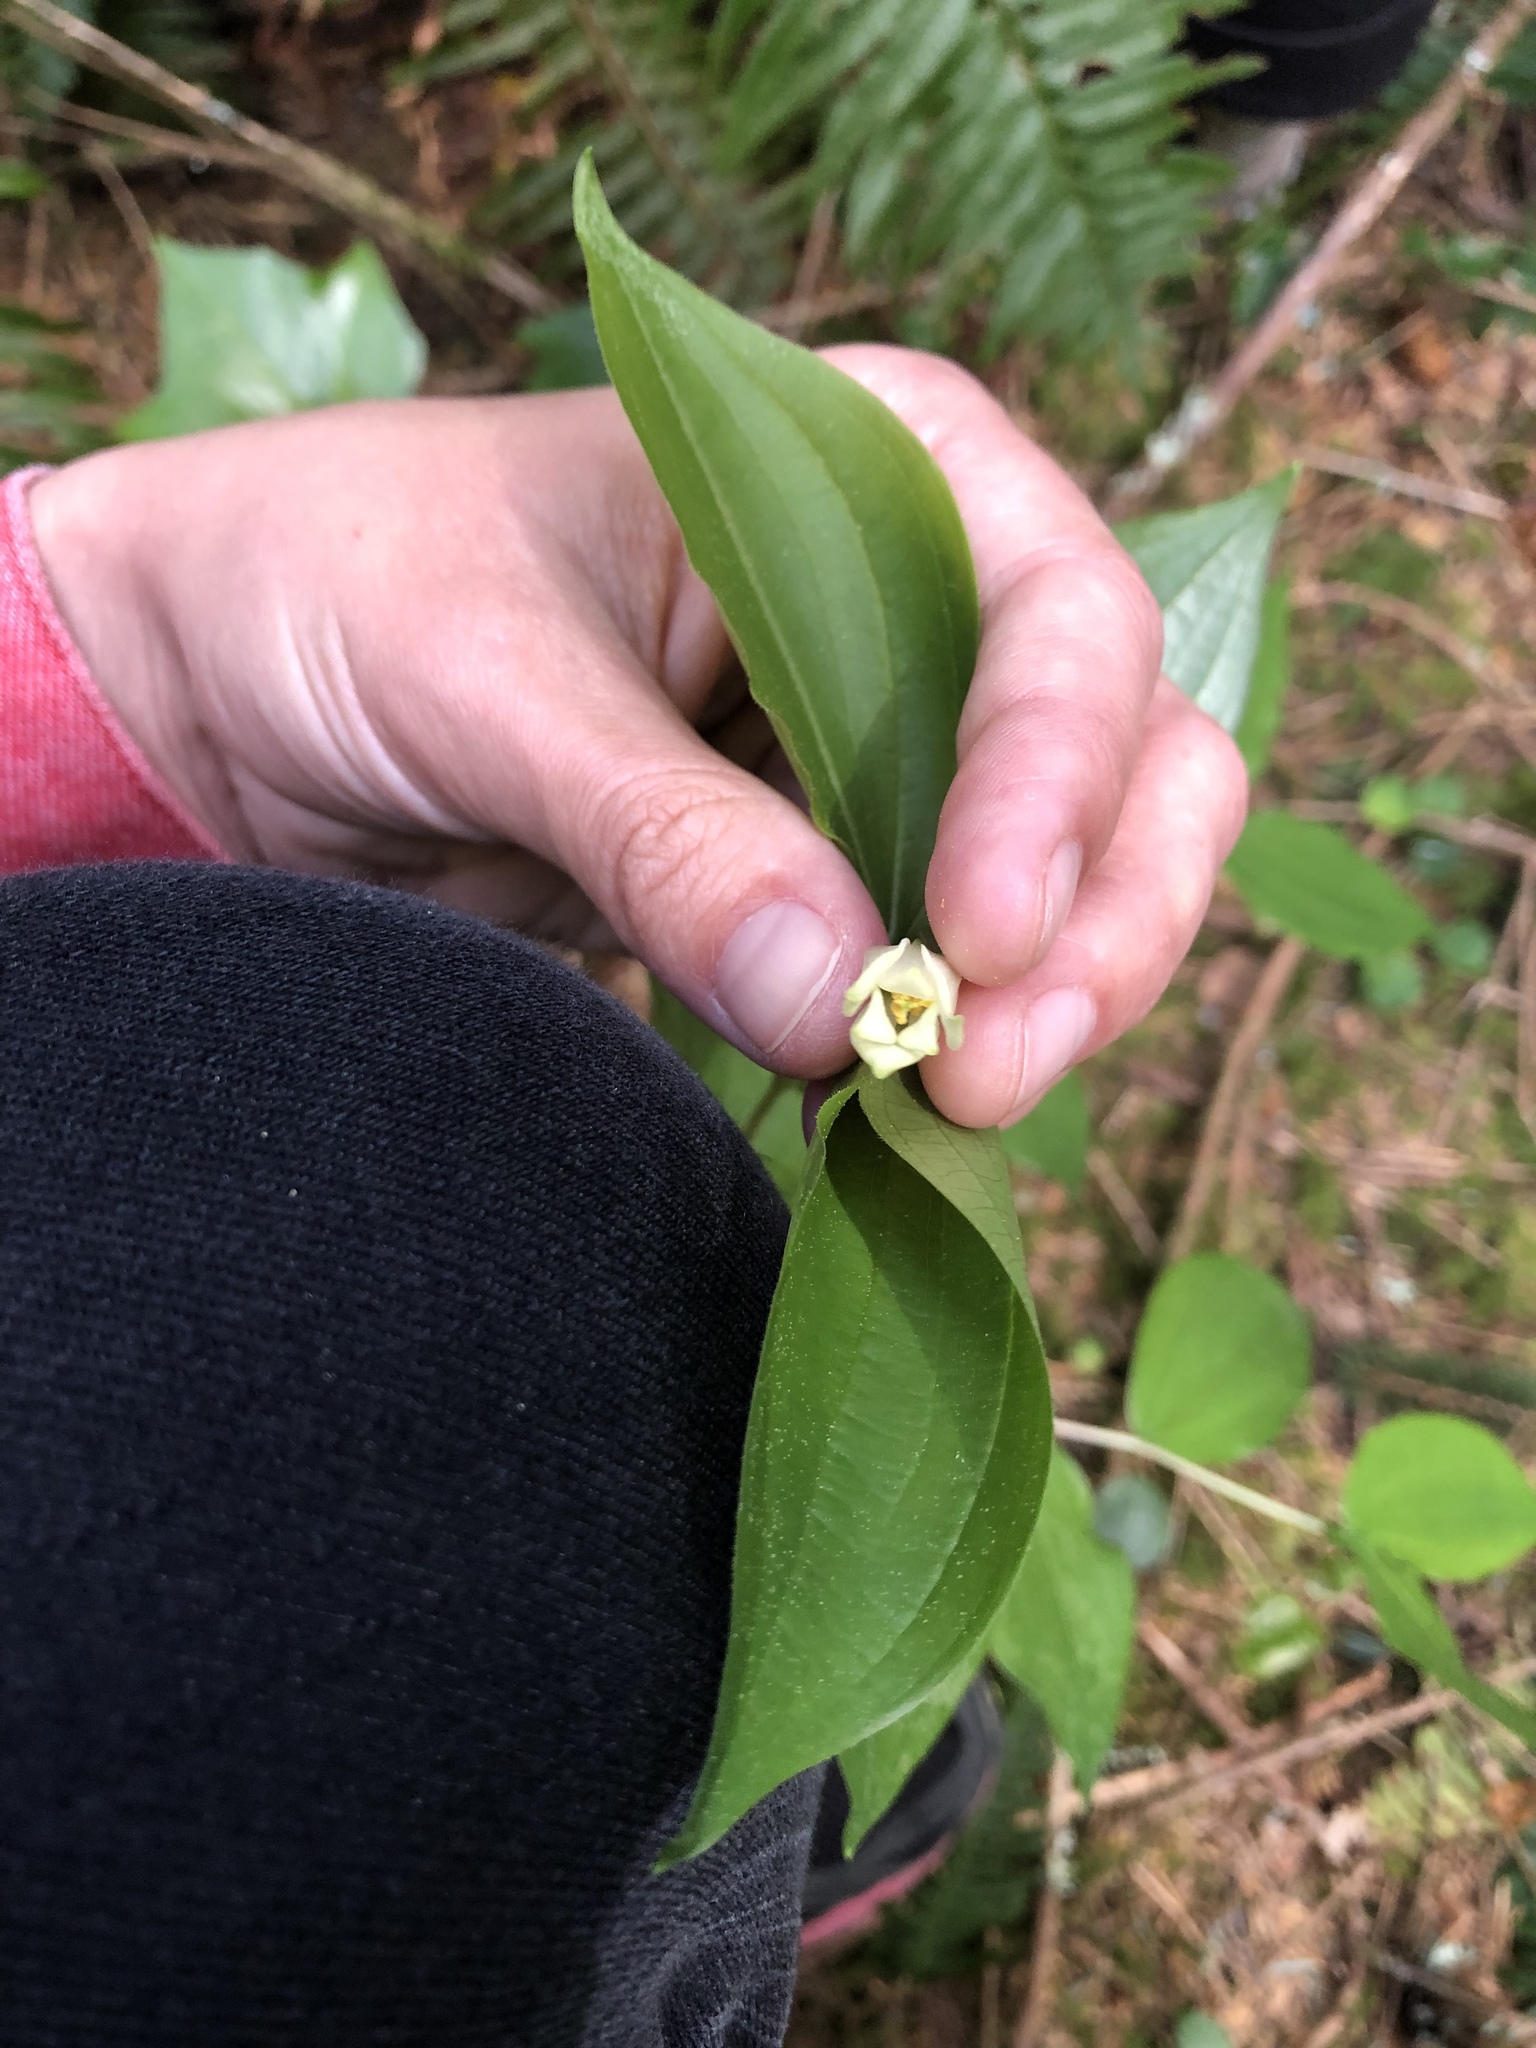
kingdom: Plantae
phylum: Tracheophyta
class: Liliopsida
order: Liliales
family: Liliaceae
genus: Prosartes
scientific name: Prosartes smithii
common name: Fairy-lantern
